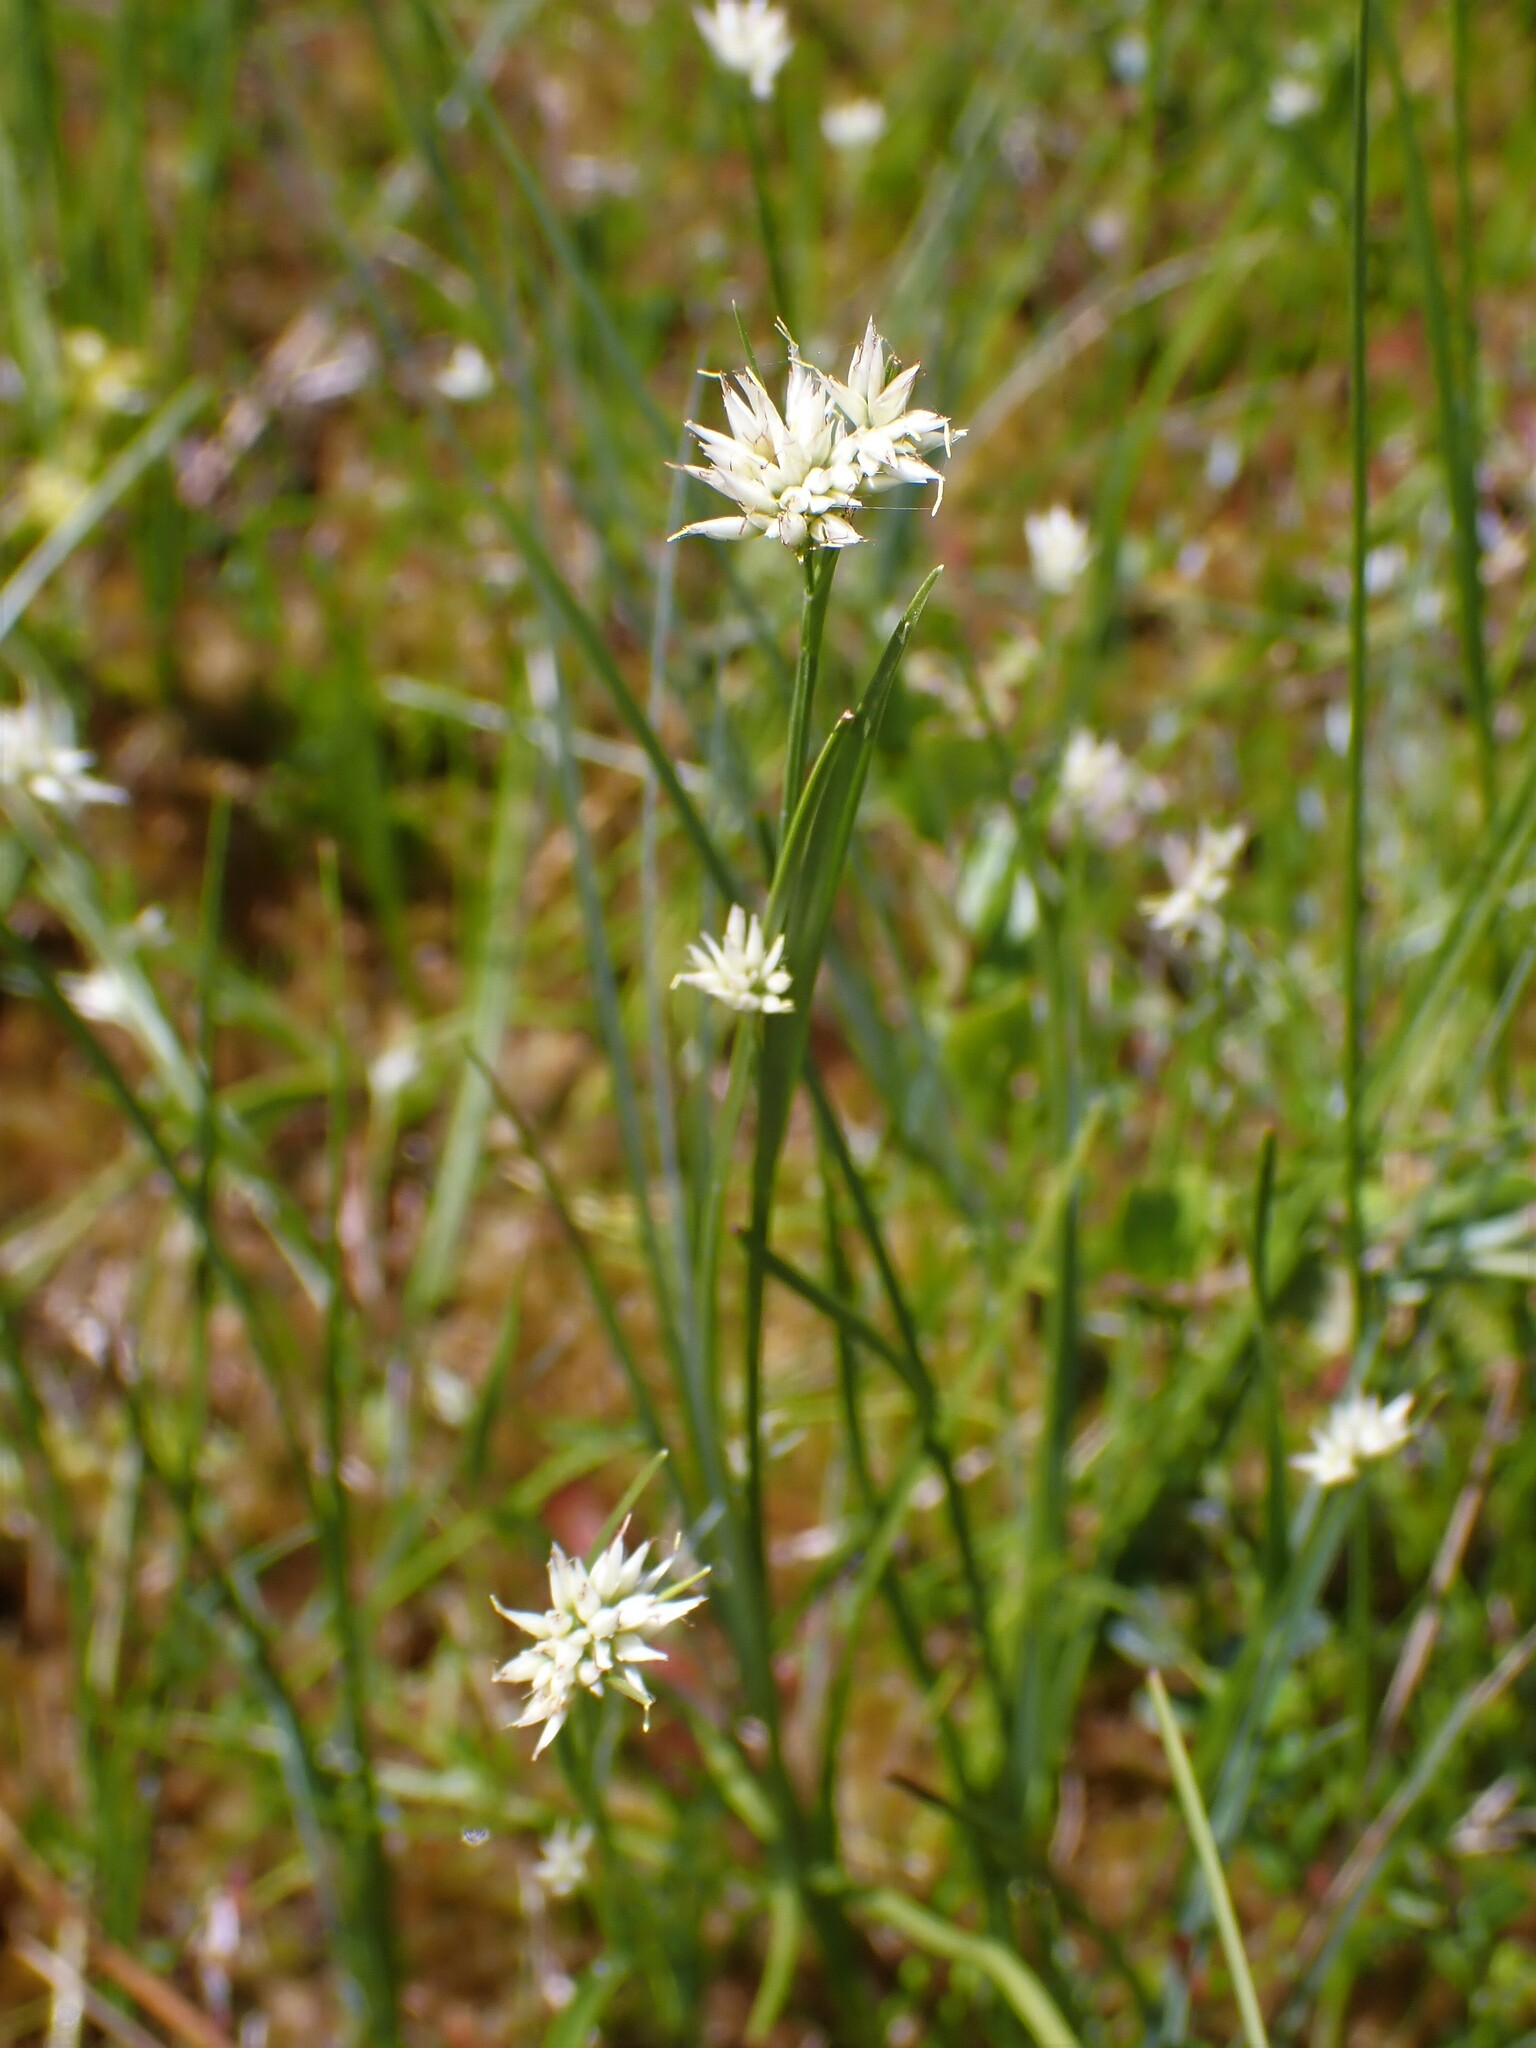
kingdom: Plantae
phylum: Tracheophyta
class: Liliopsida
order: Poales
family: Cyperaceae
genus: Rhynchospora
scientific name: Rhynchospora alba
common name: White beak-sedge
